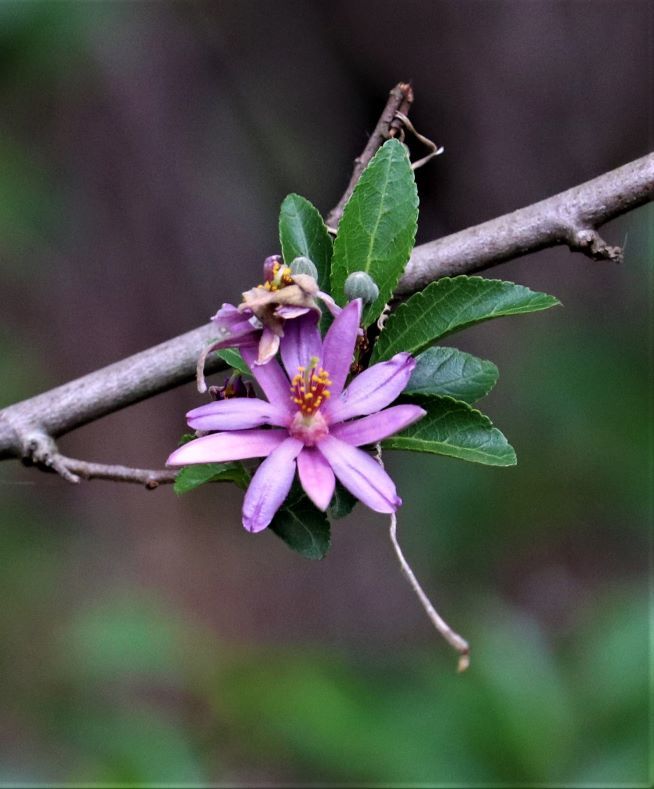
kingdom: Plantae
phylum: Tracheophyta
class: Magnoliopsida
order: Malvales
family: Malvaceae
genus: Grewia
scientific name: Grewia occidentalis
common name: Crossberry
